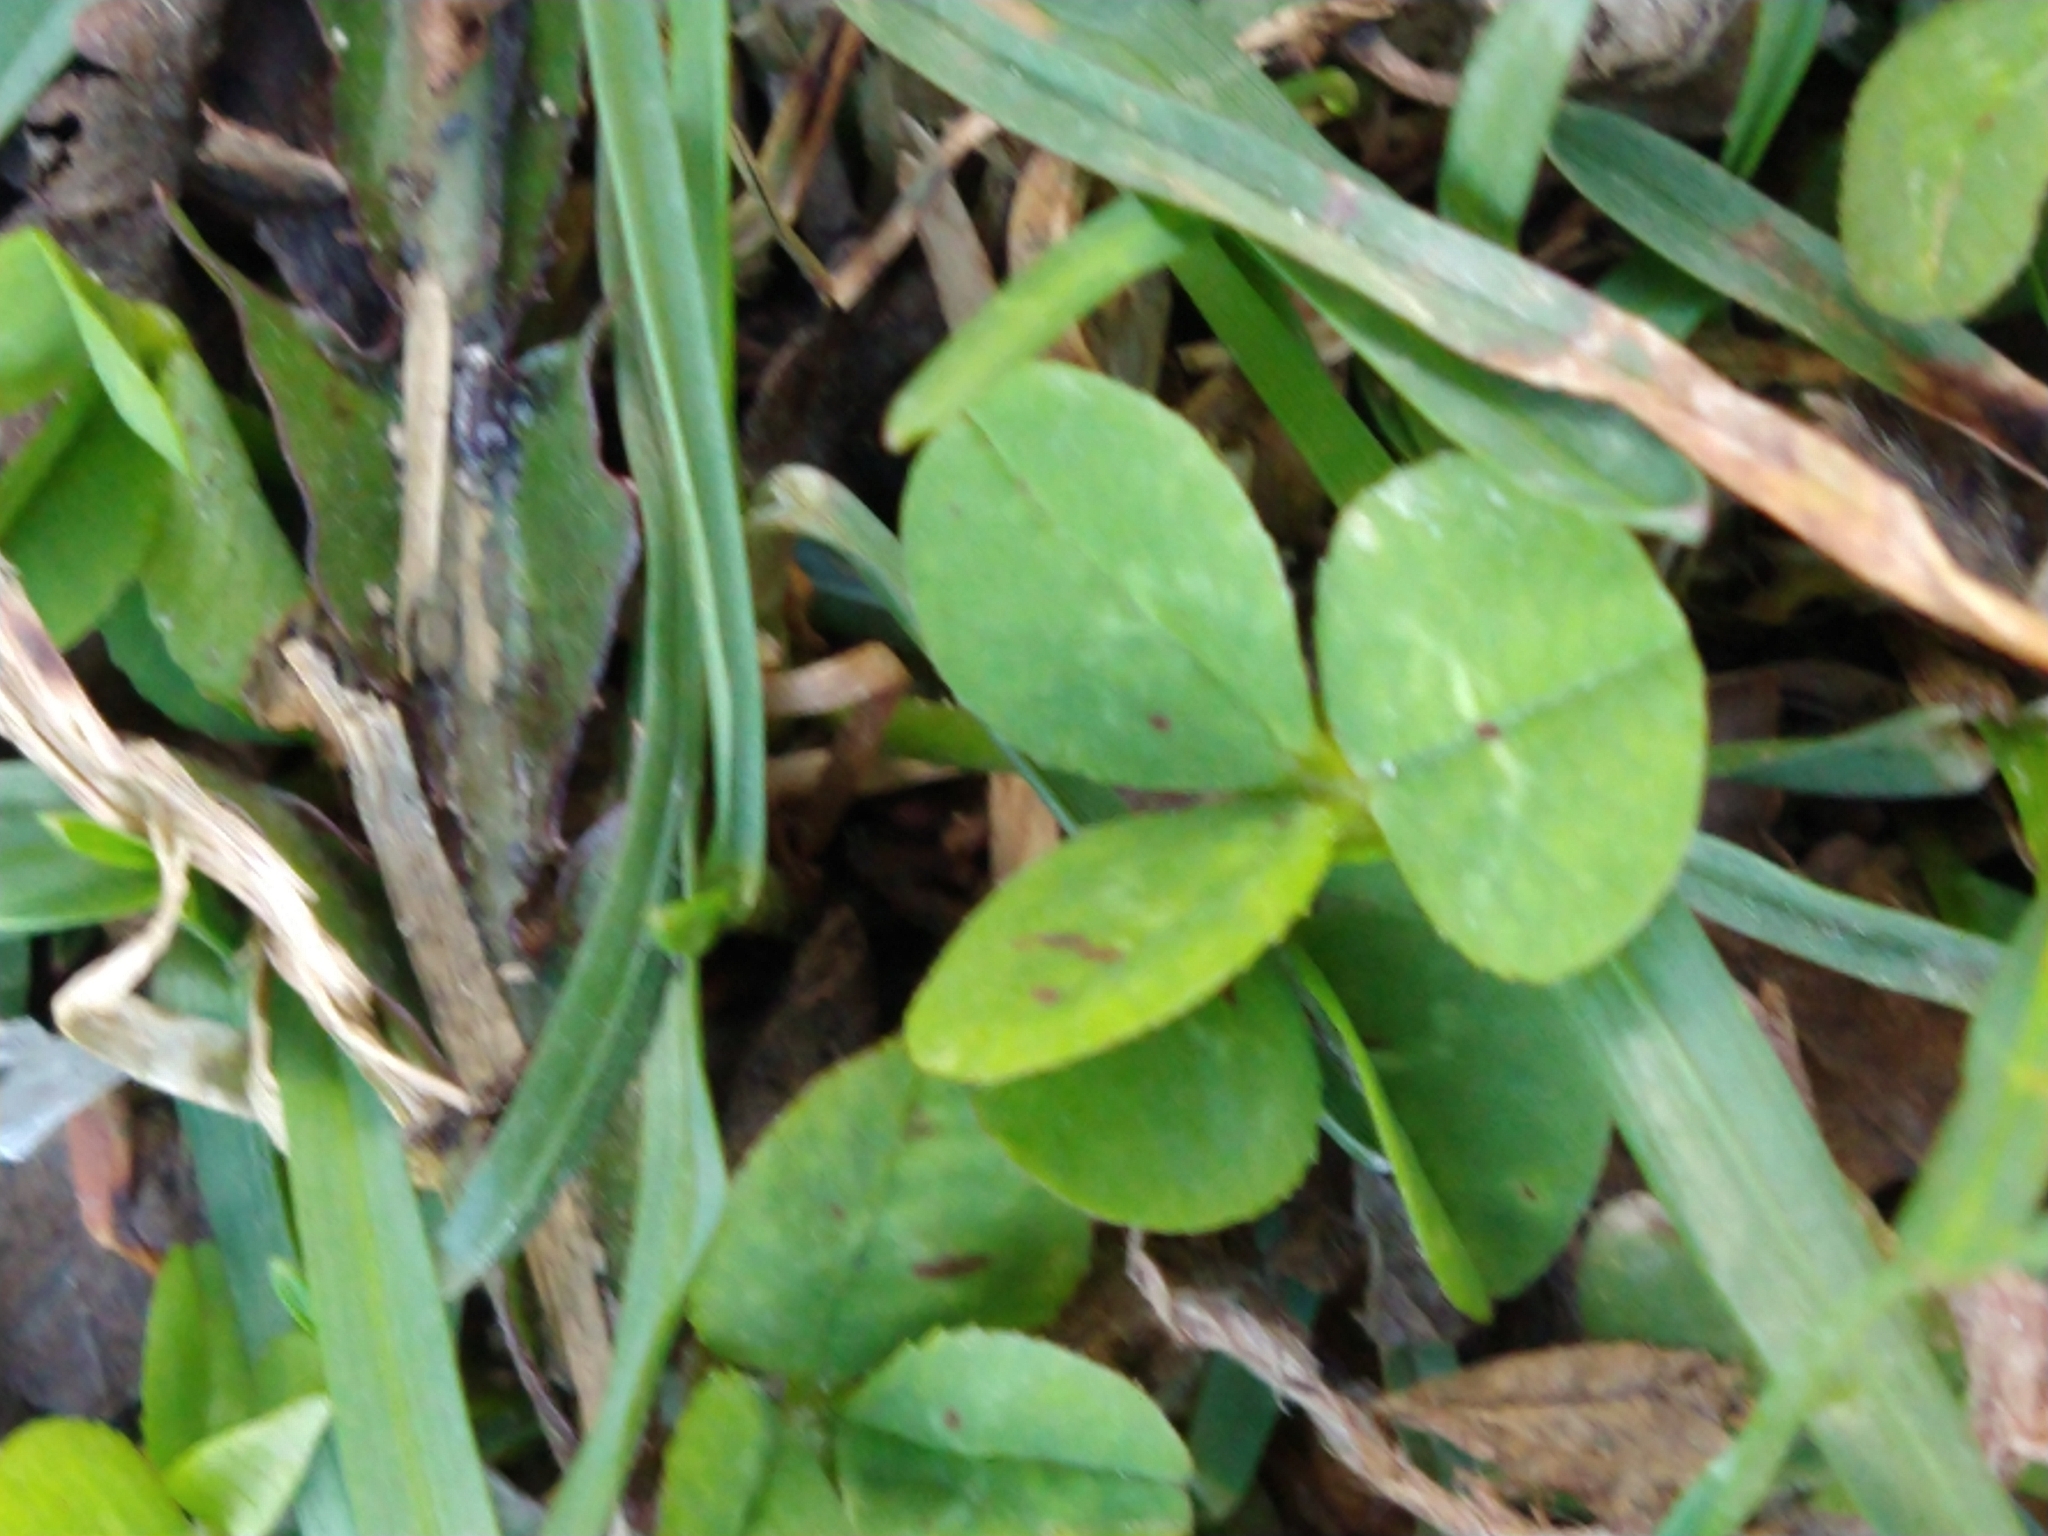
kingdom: Plantae
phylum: Tracheophyta
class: Magnoliopsida
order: Fabales
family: Fabaceae
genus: Trifolium
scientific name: Trifolium repens
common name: White clover
